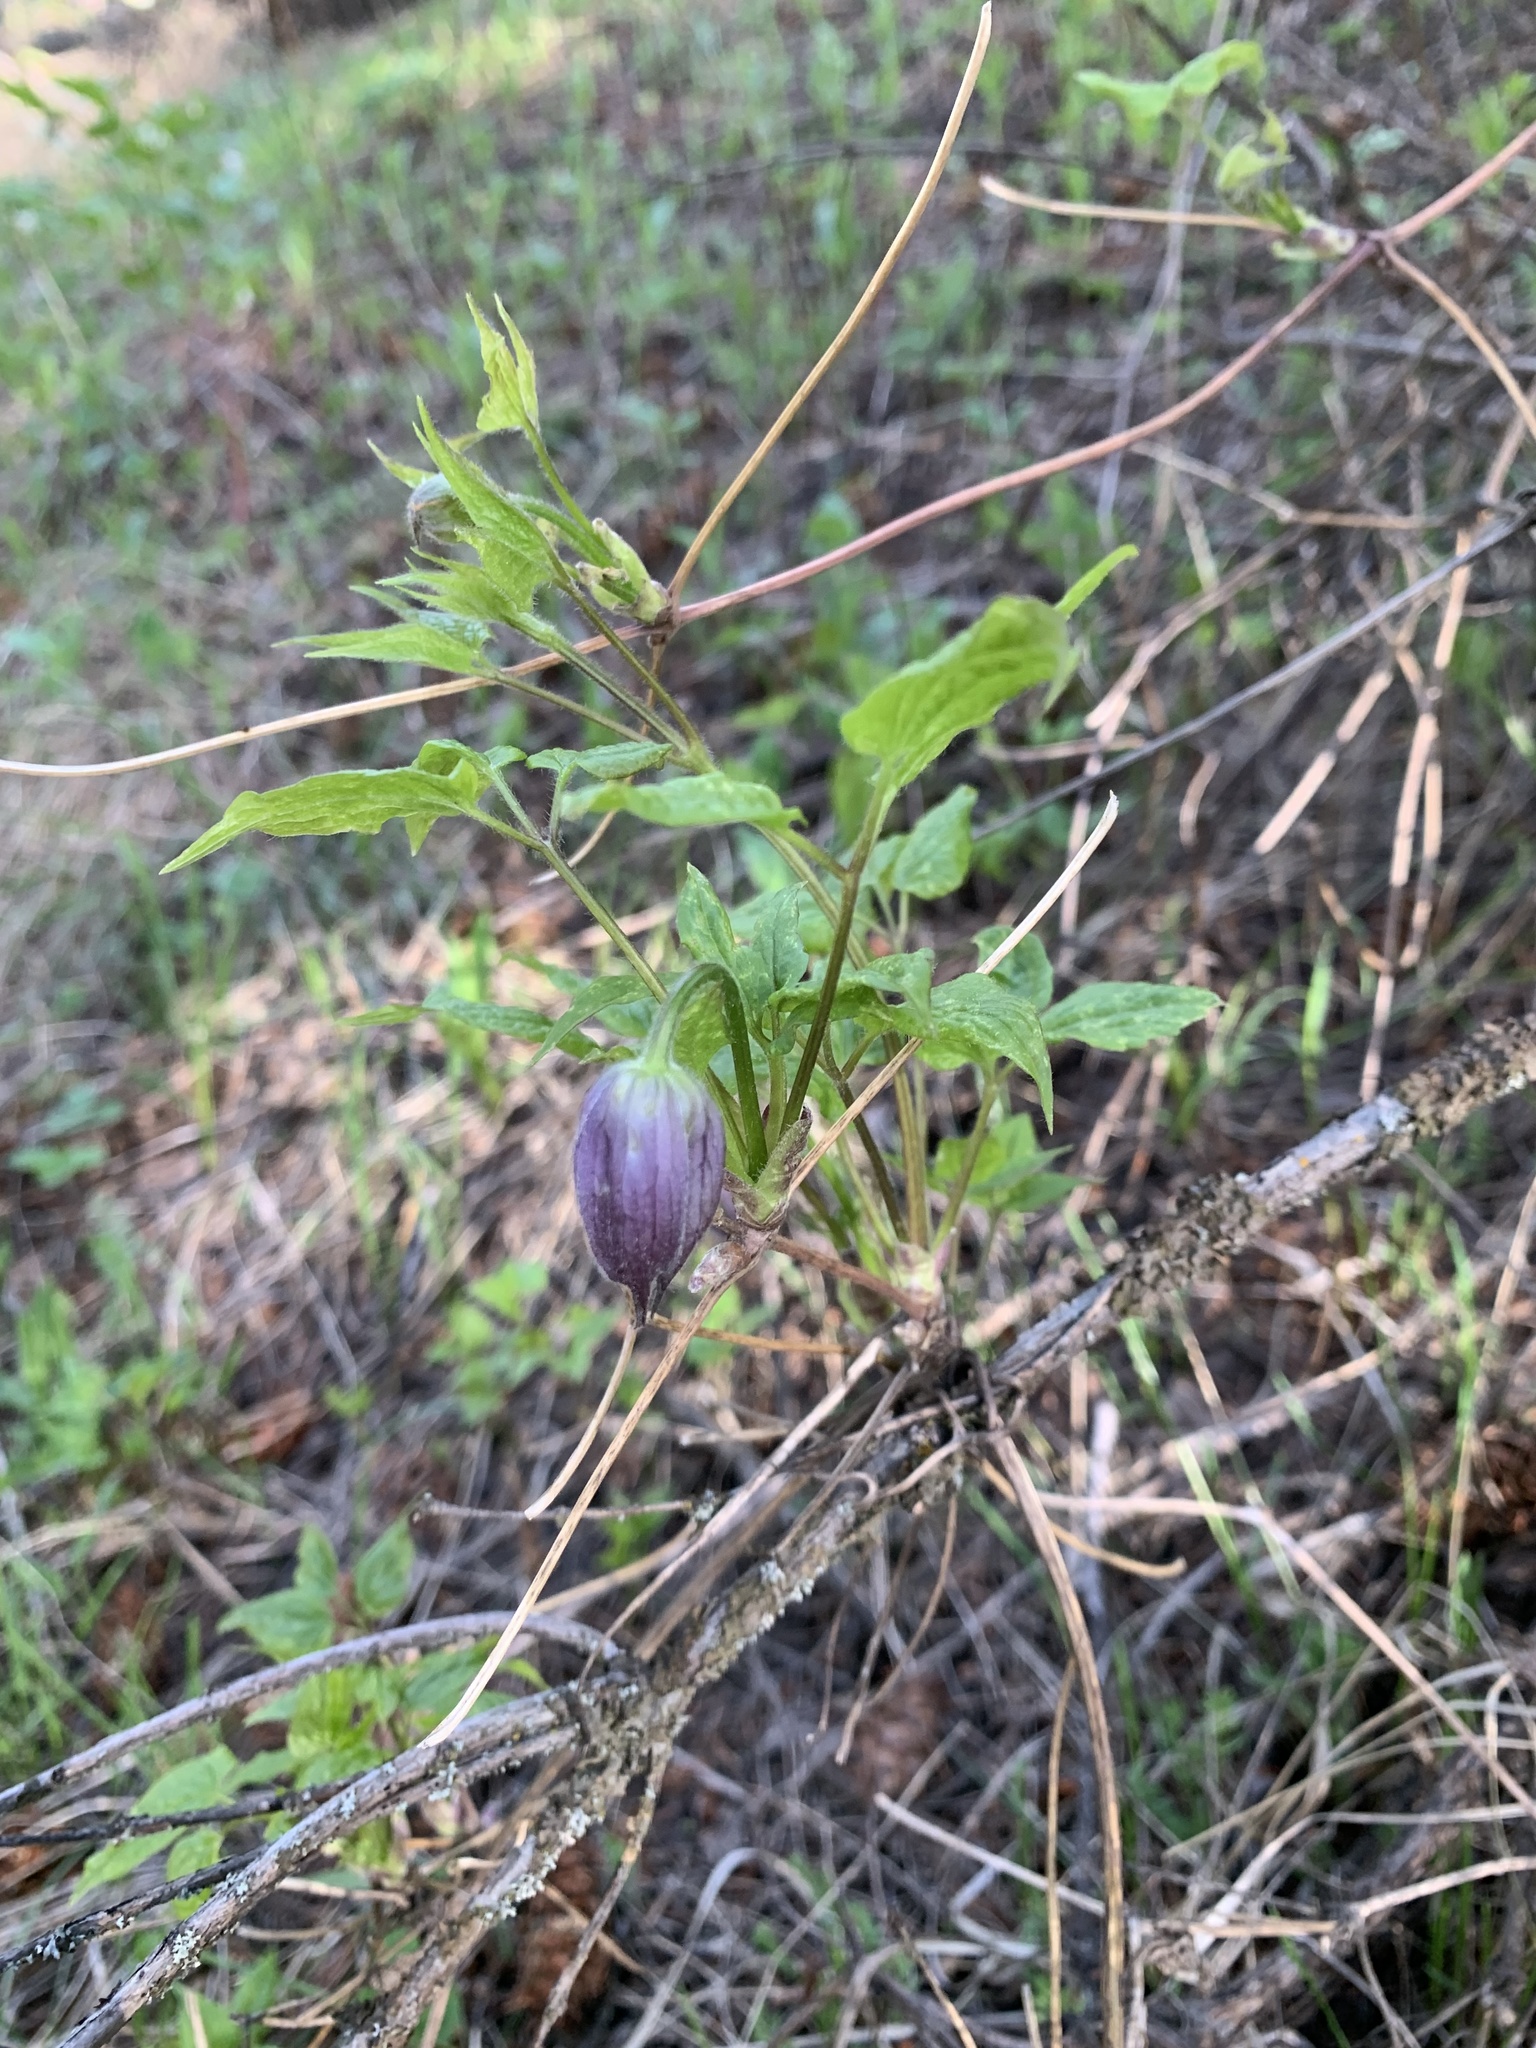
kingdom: Plantae
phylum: Tracheophyta
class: Magnoliopsida
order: Ranunculales
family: Ranunculaceae
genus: Clematis
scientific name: Clematis occidentalis
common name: Purple clematis
